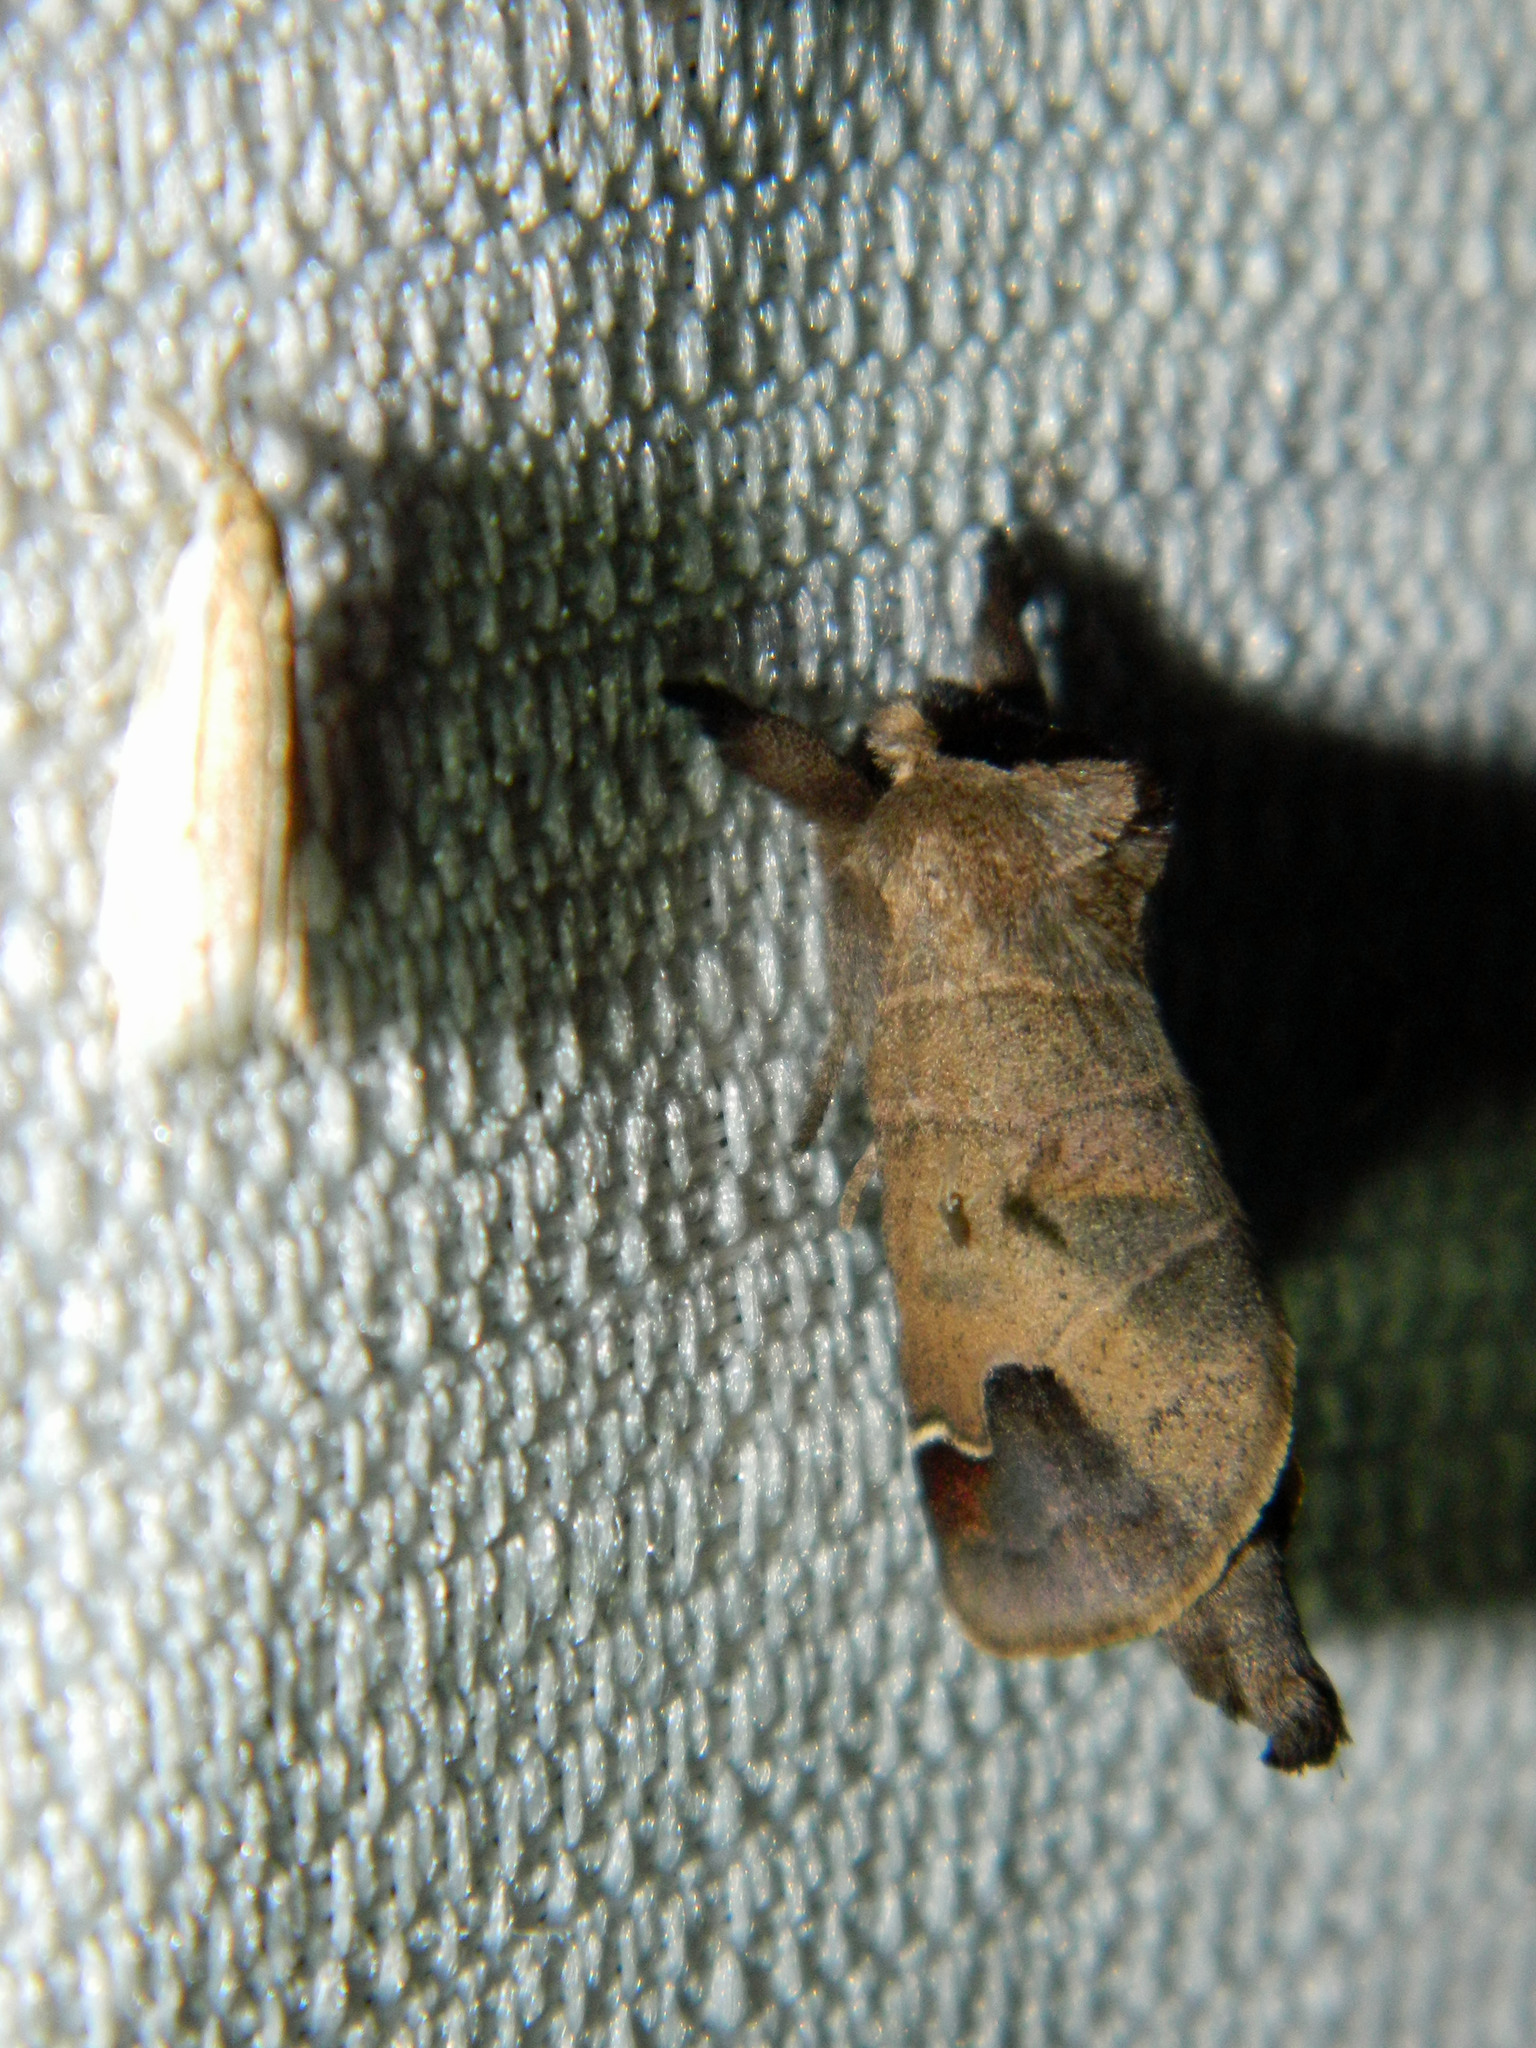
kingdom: Animalia
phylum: Arthropoda
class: Insecta
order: Lepidoptera
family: Notodontidae
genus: Clostera
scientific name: Clostera albosigma
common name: Sigmoid prominent
